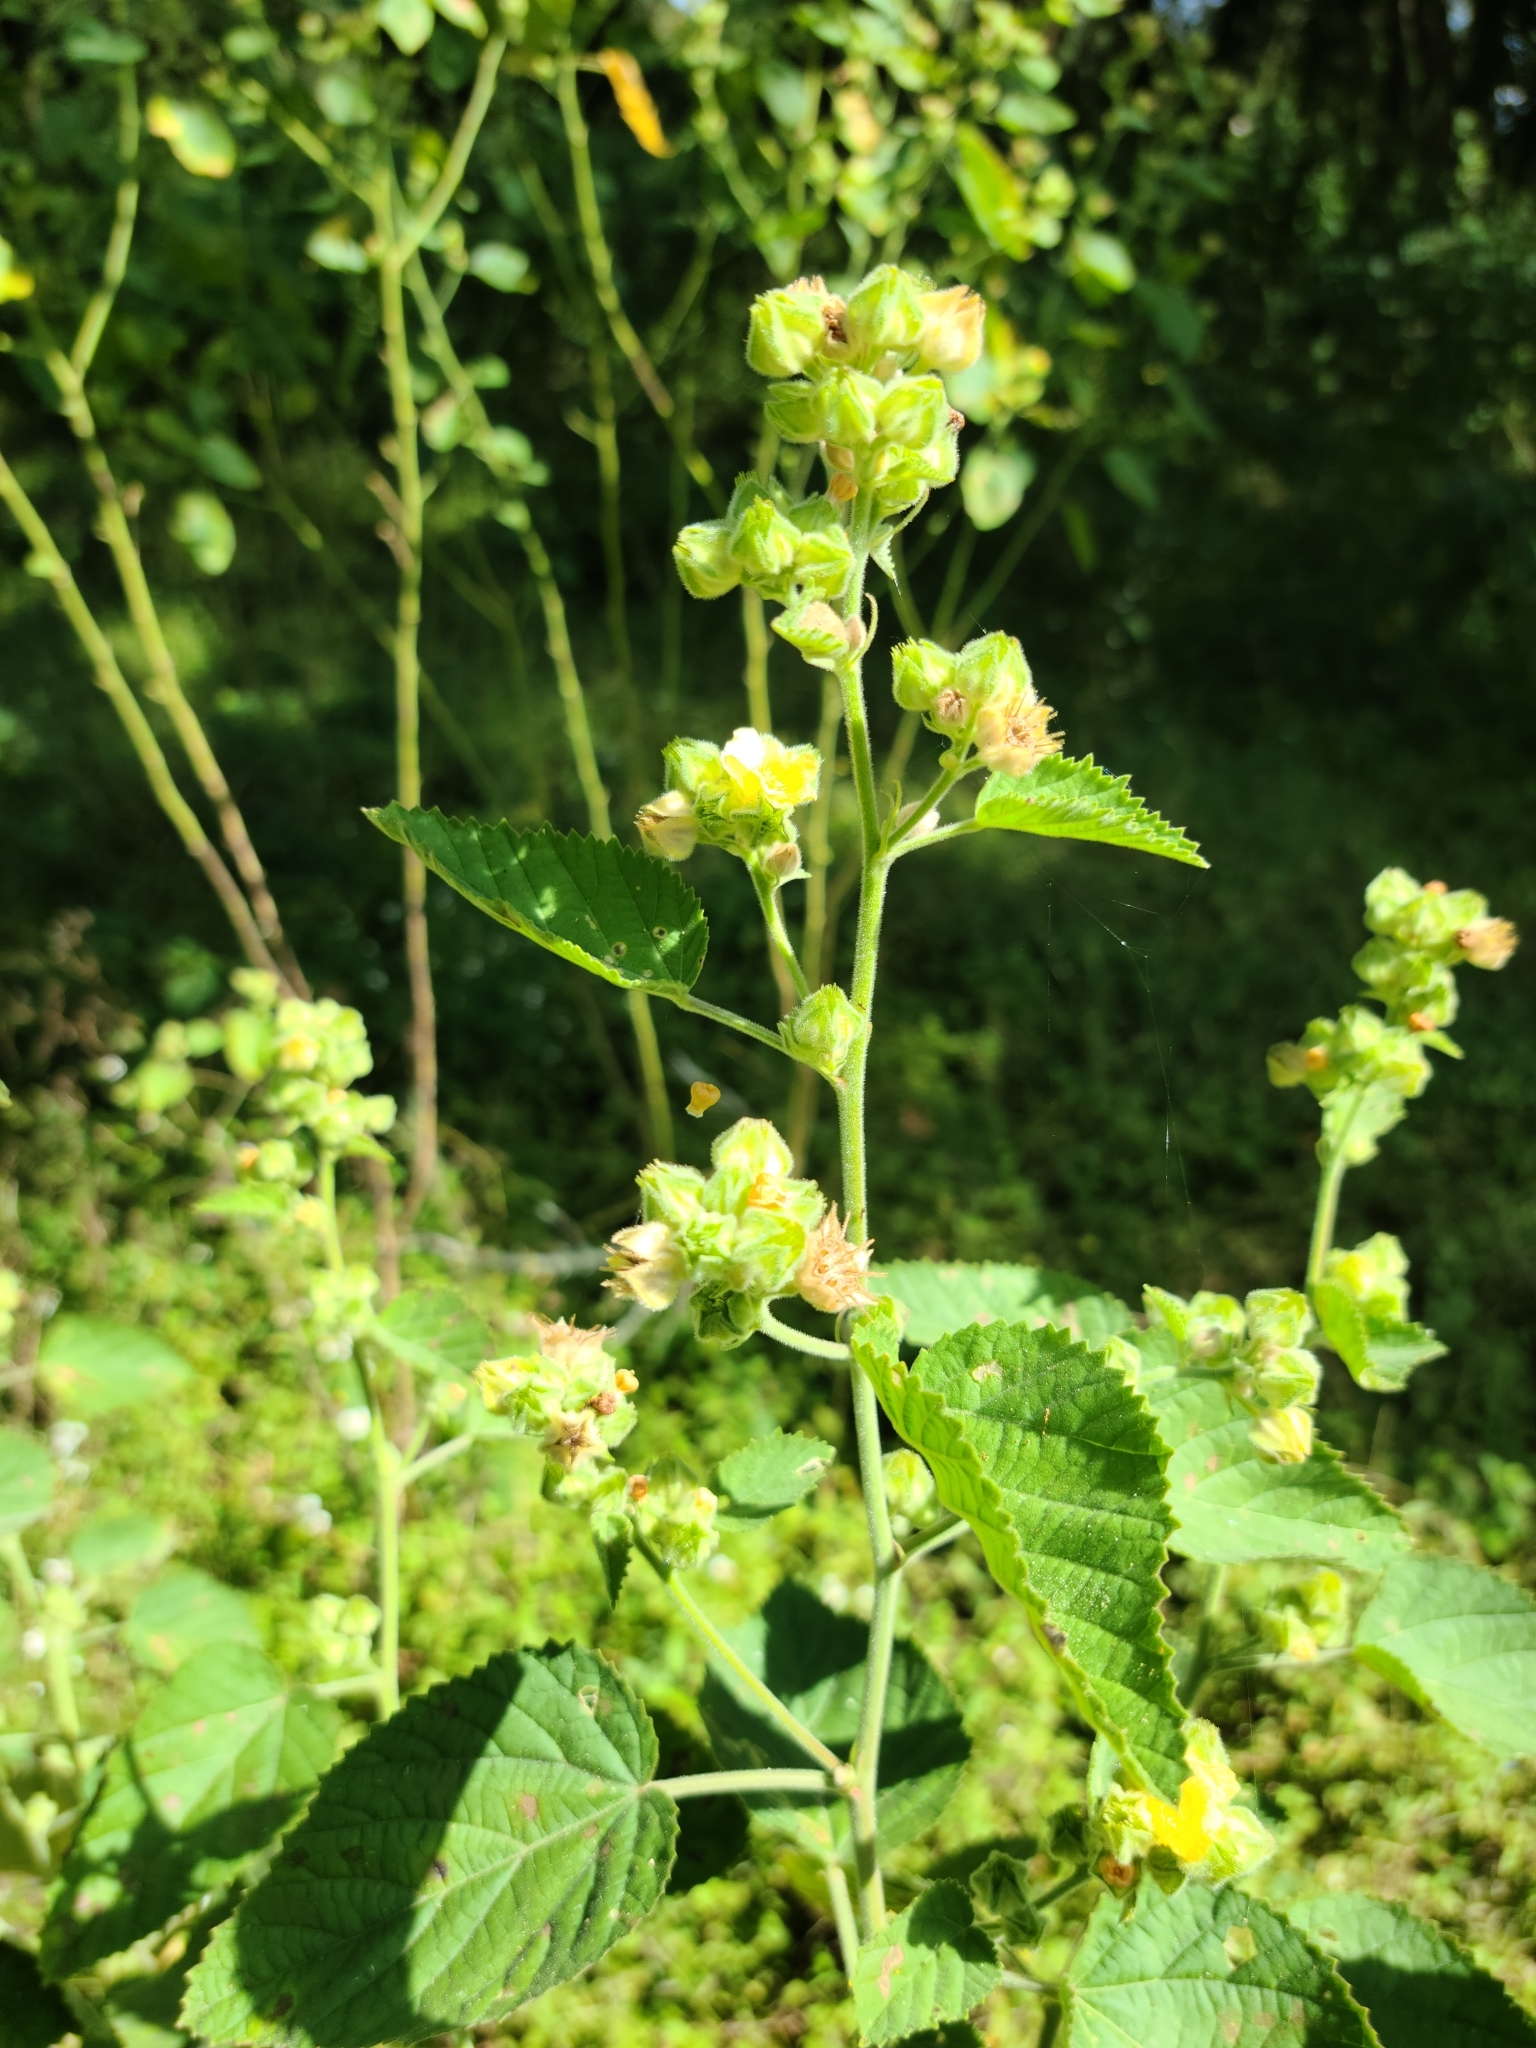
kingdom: Plantae
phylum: Tracheophyta
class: Magnoliopsida
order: Malvales
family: Malvaceae
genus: Sida
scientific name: Sida cordifolia
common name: Ilima
